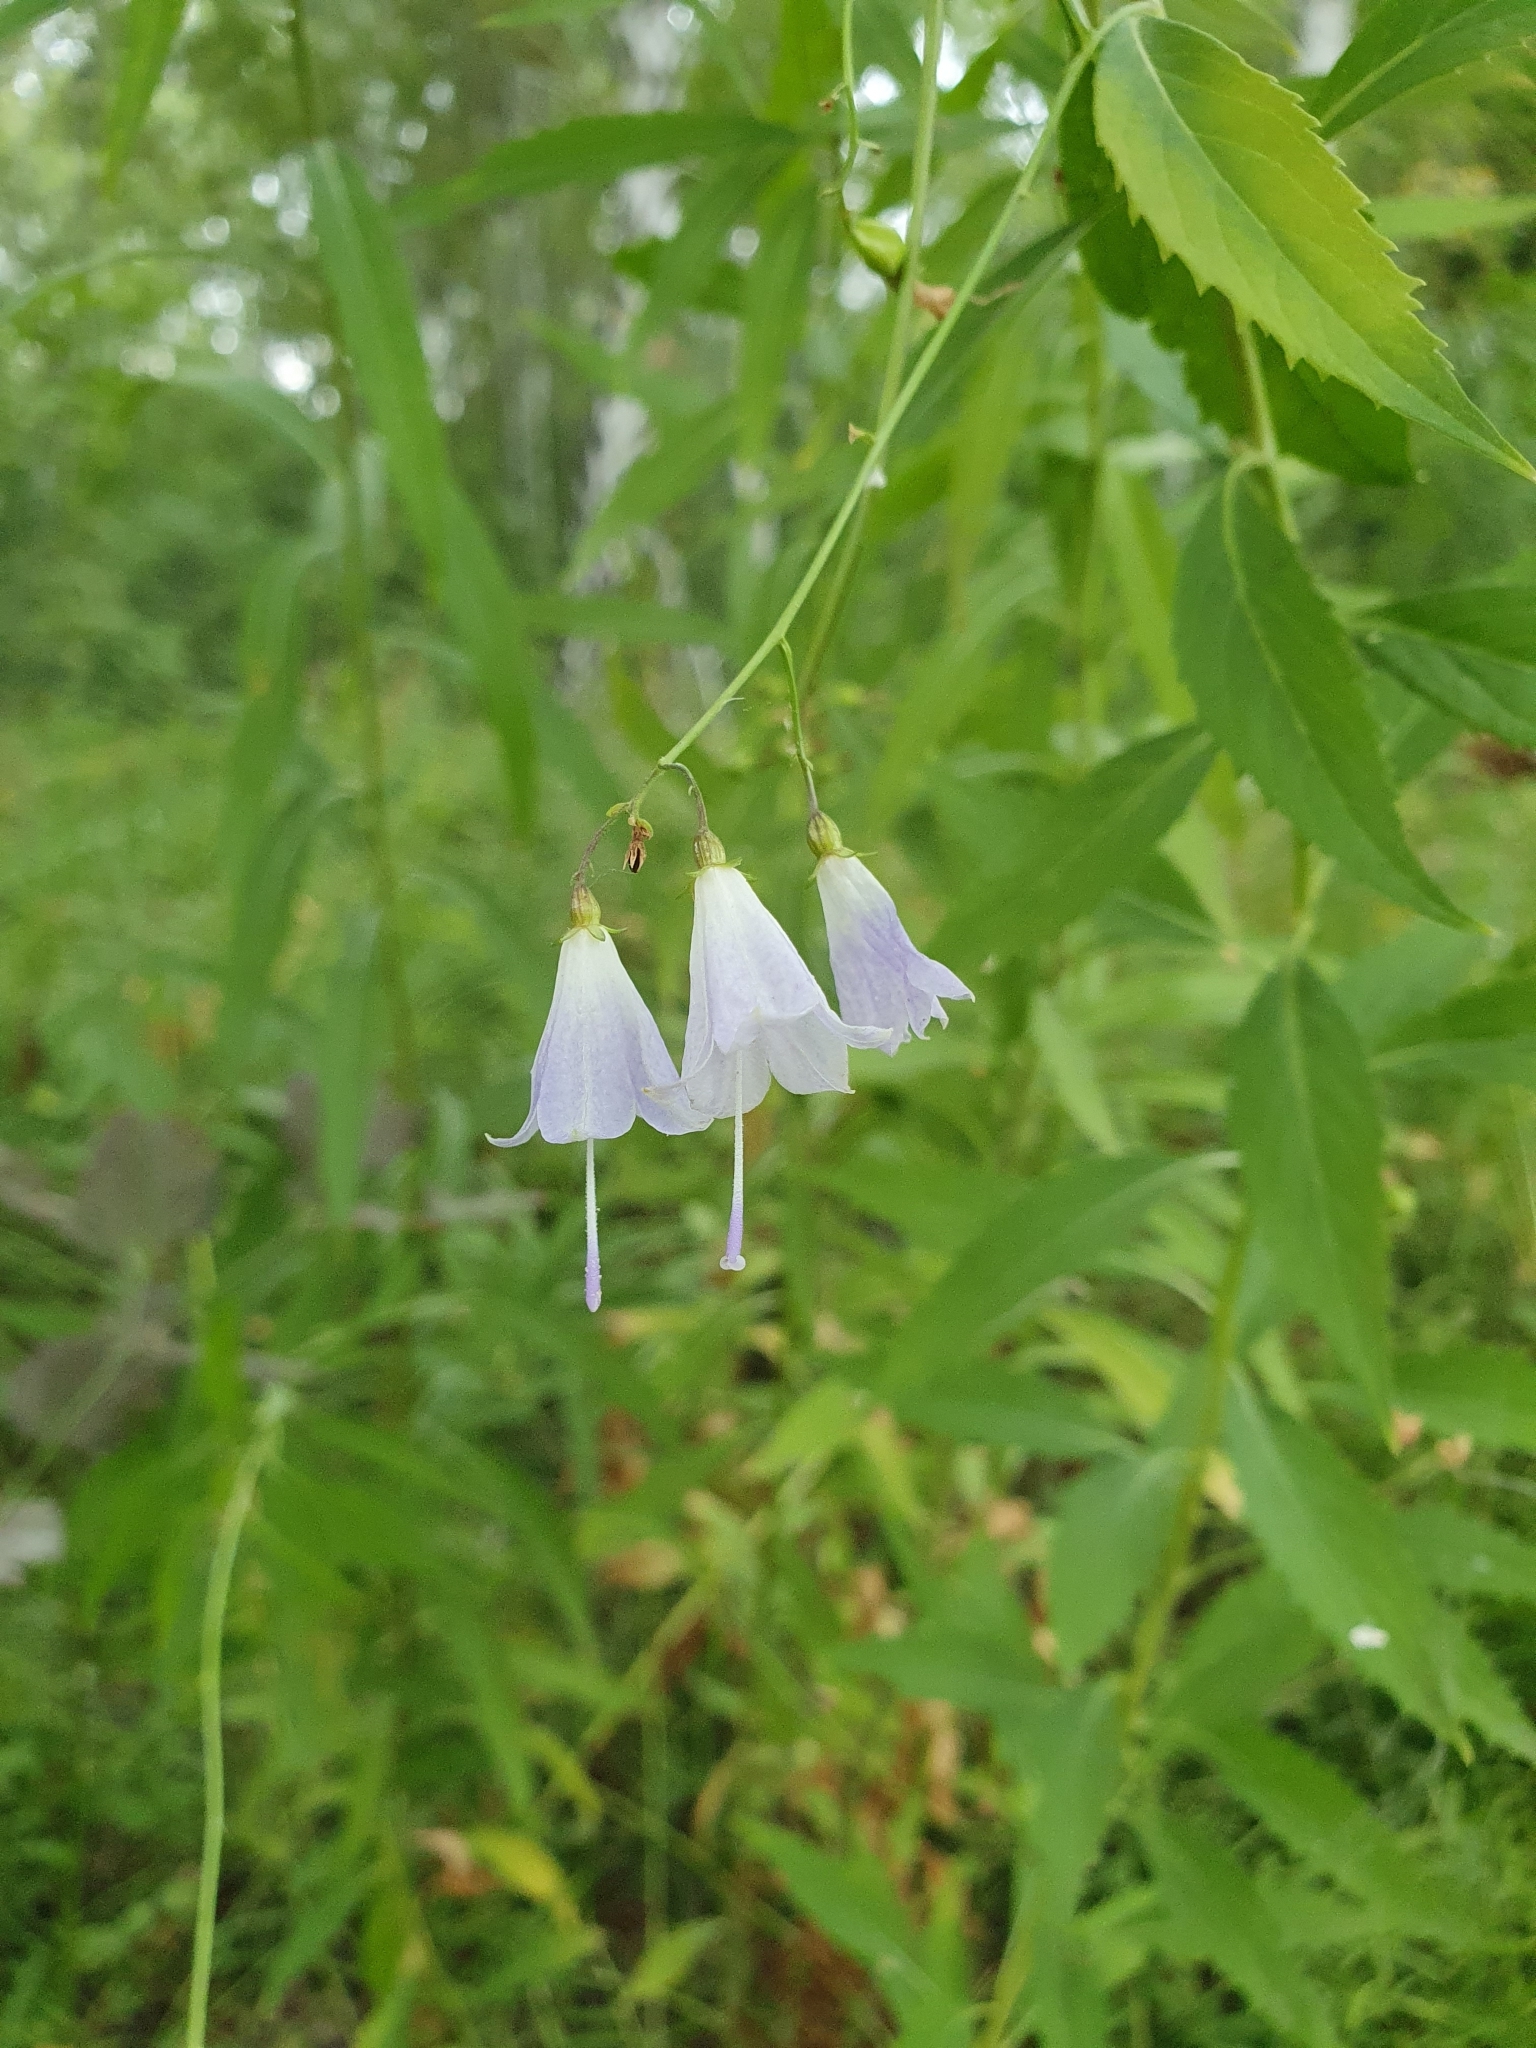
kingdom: Plantae
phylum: Tracheophyta
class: Magnoliopsida
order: Asterales
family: Campanulaceae
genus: Adenophora
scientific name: Adenophora liliifolia
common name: Lilyleaf ladybells
